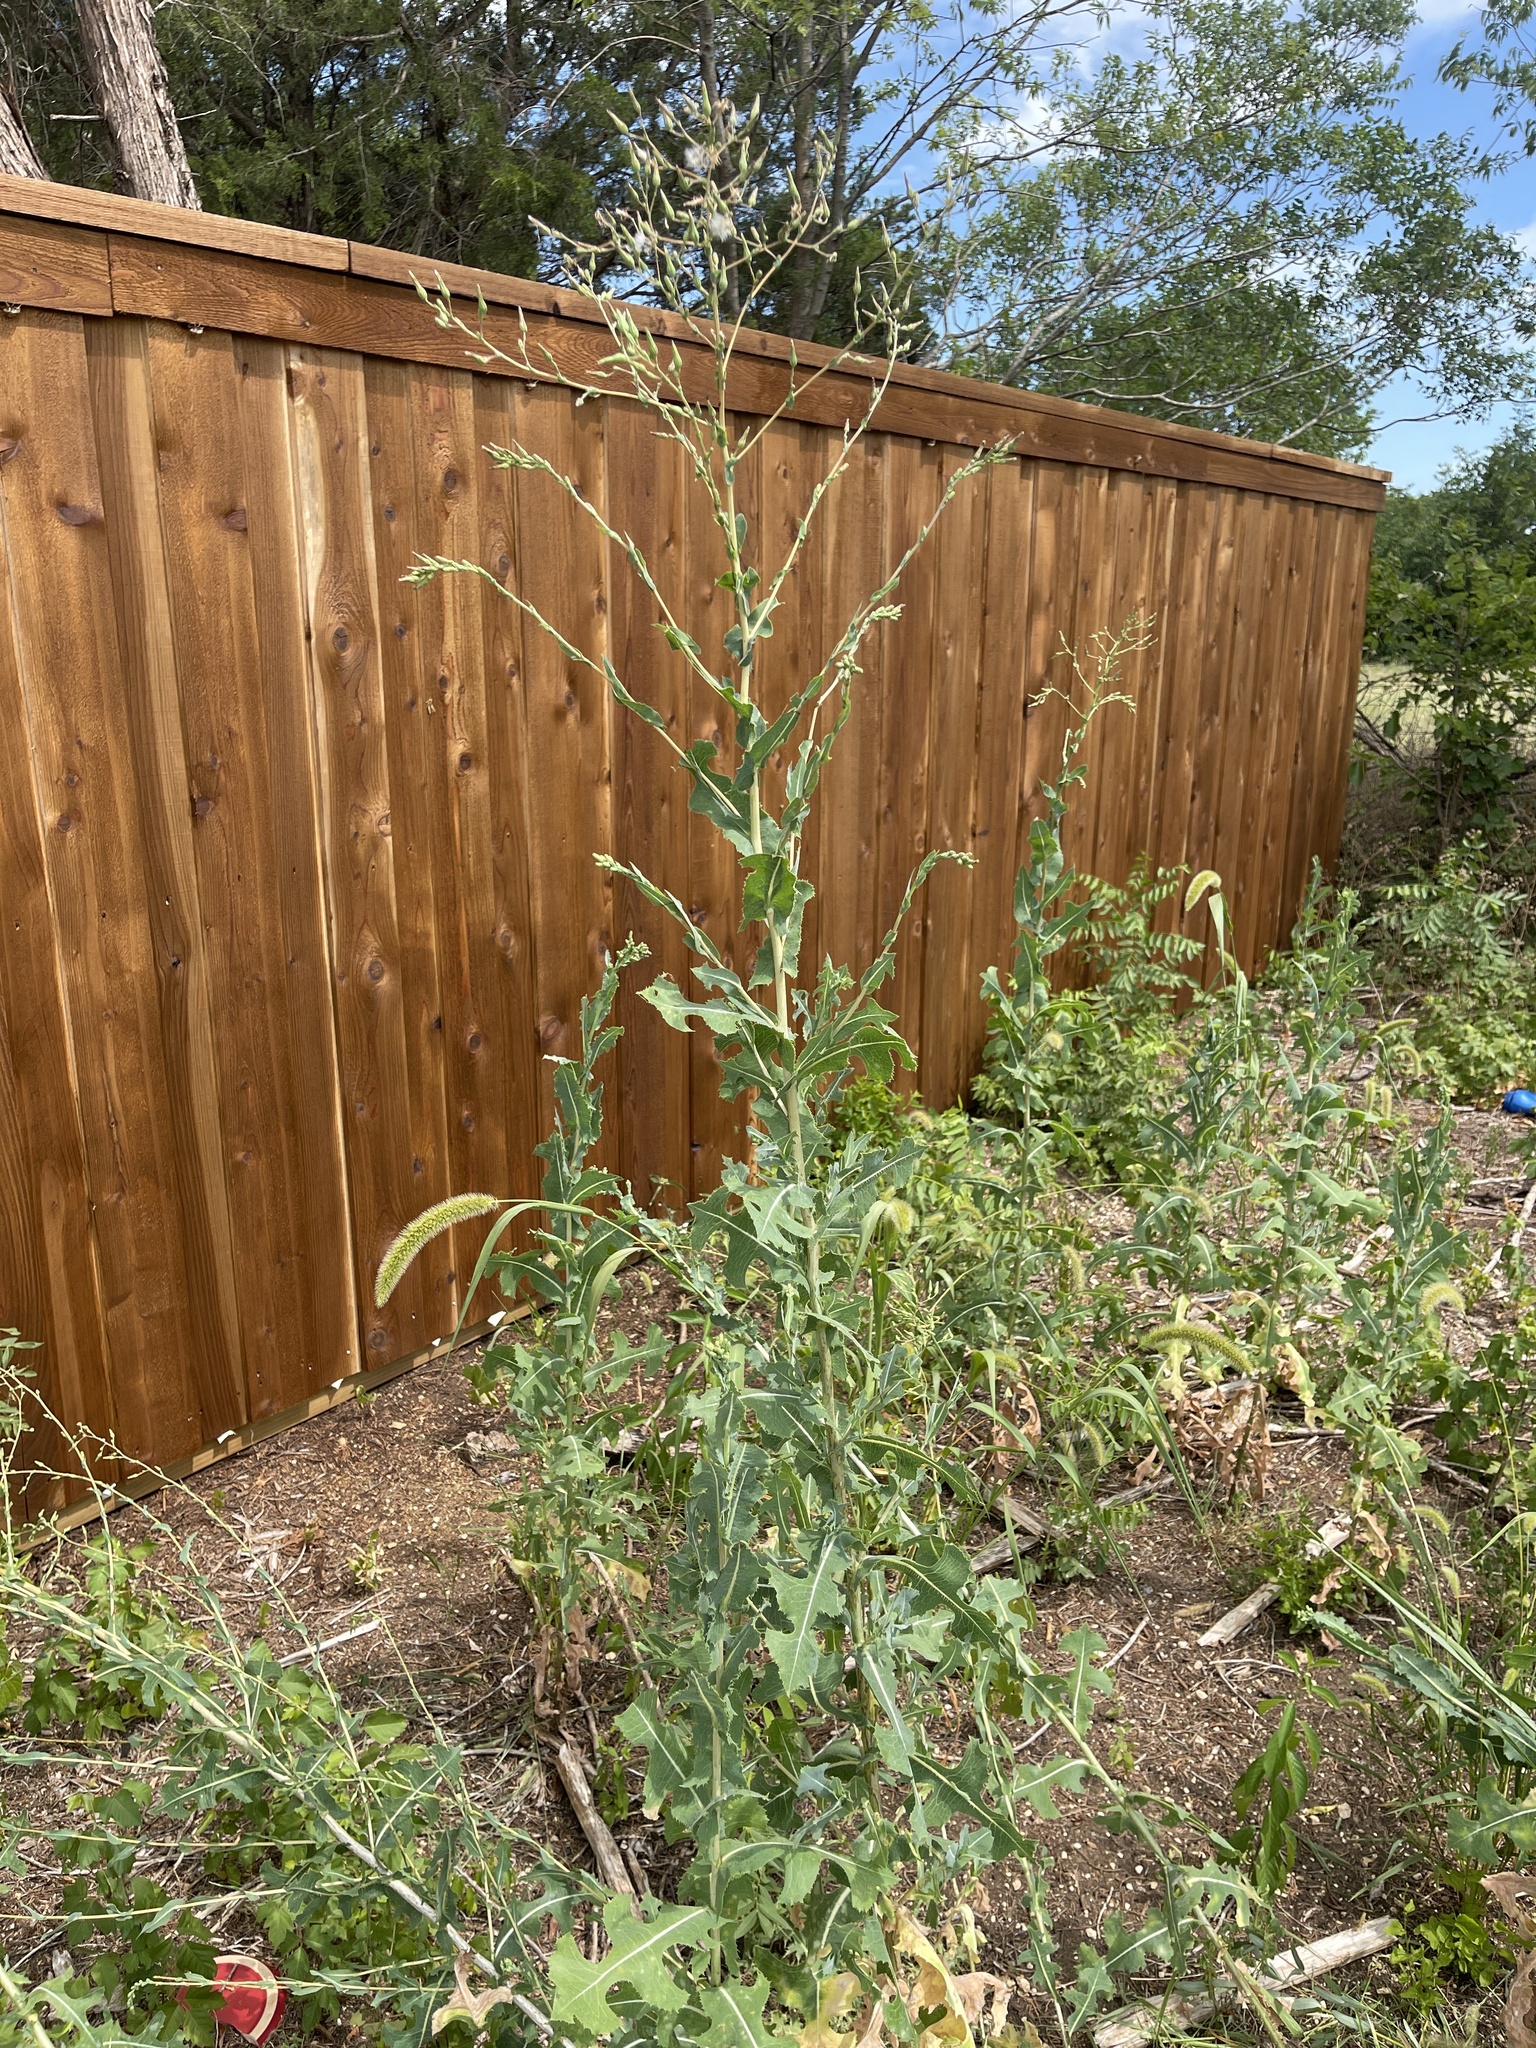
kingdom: Plantae
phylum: Tracheophyta
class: Magnoliopsida
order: Asterales
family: Asteraceae
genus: Lactuca
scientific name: Lactuca serriola
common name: Prickly lettuce
